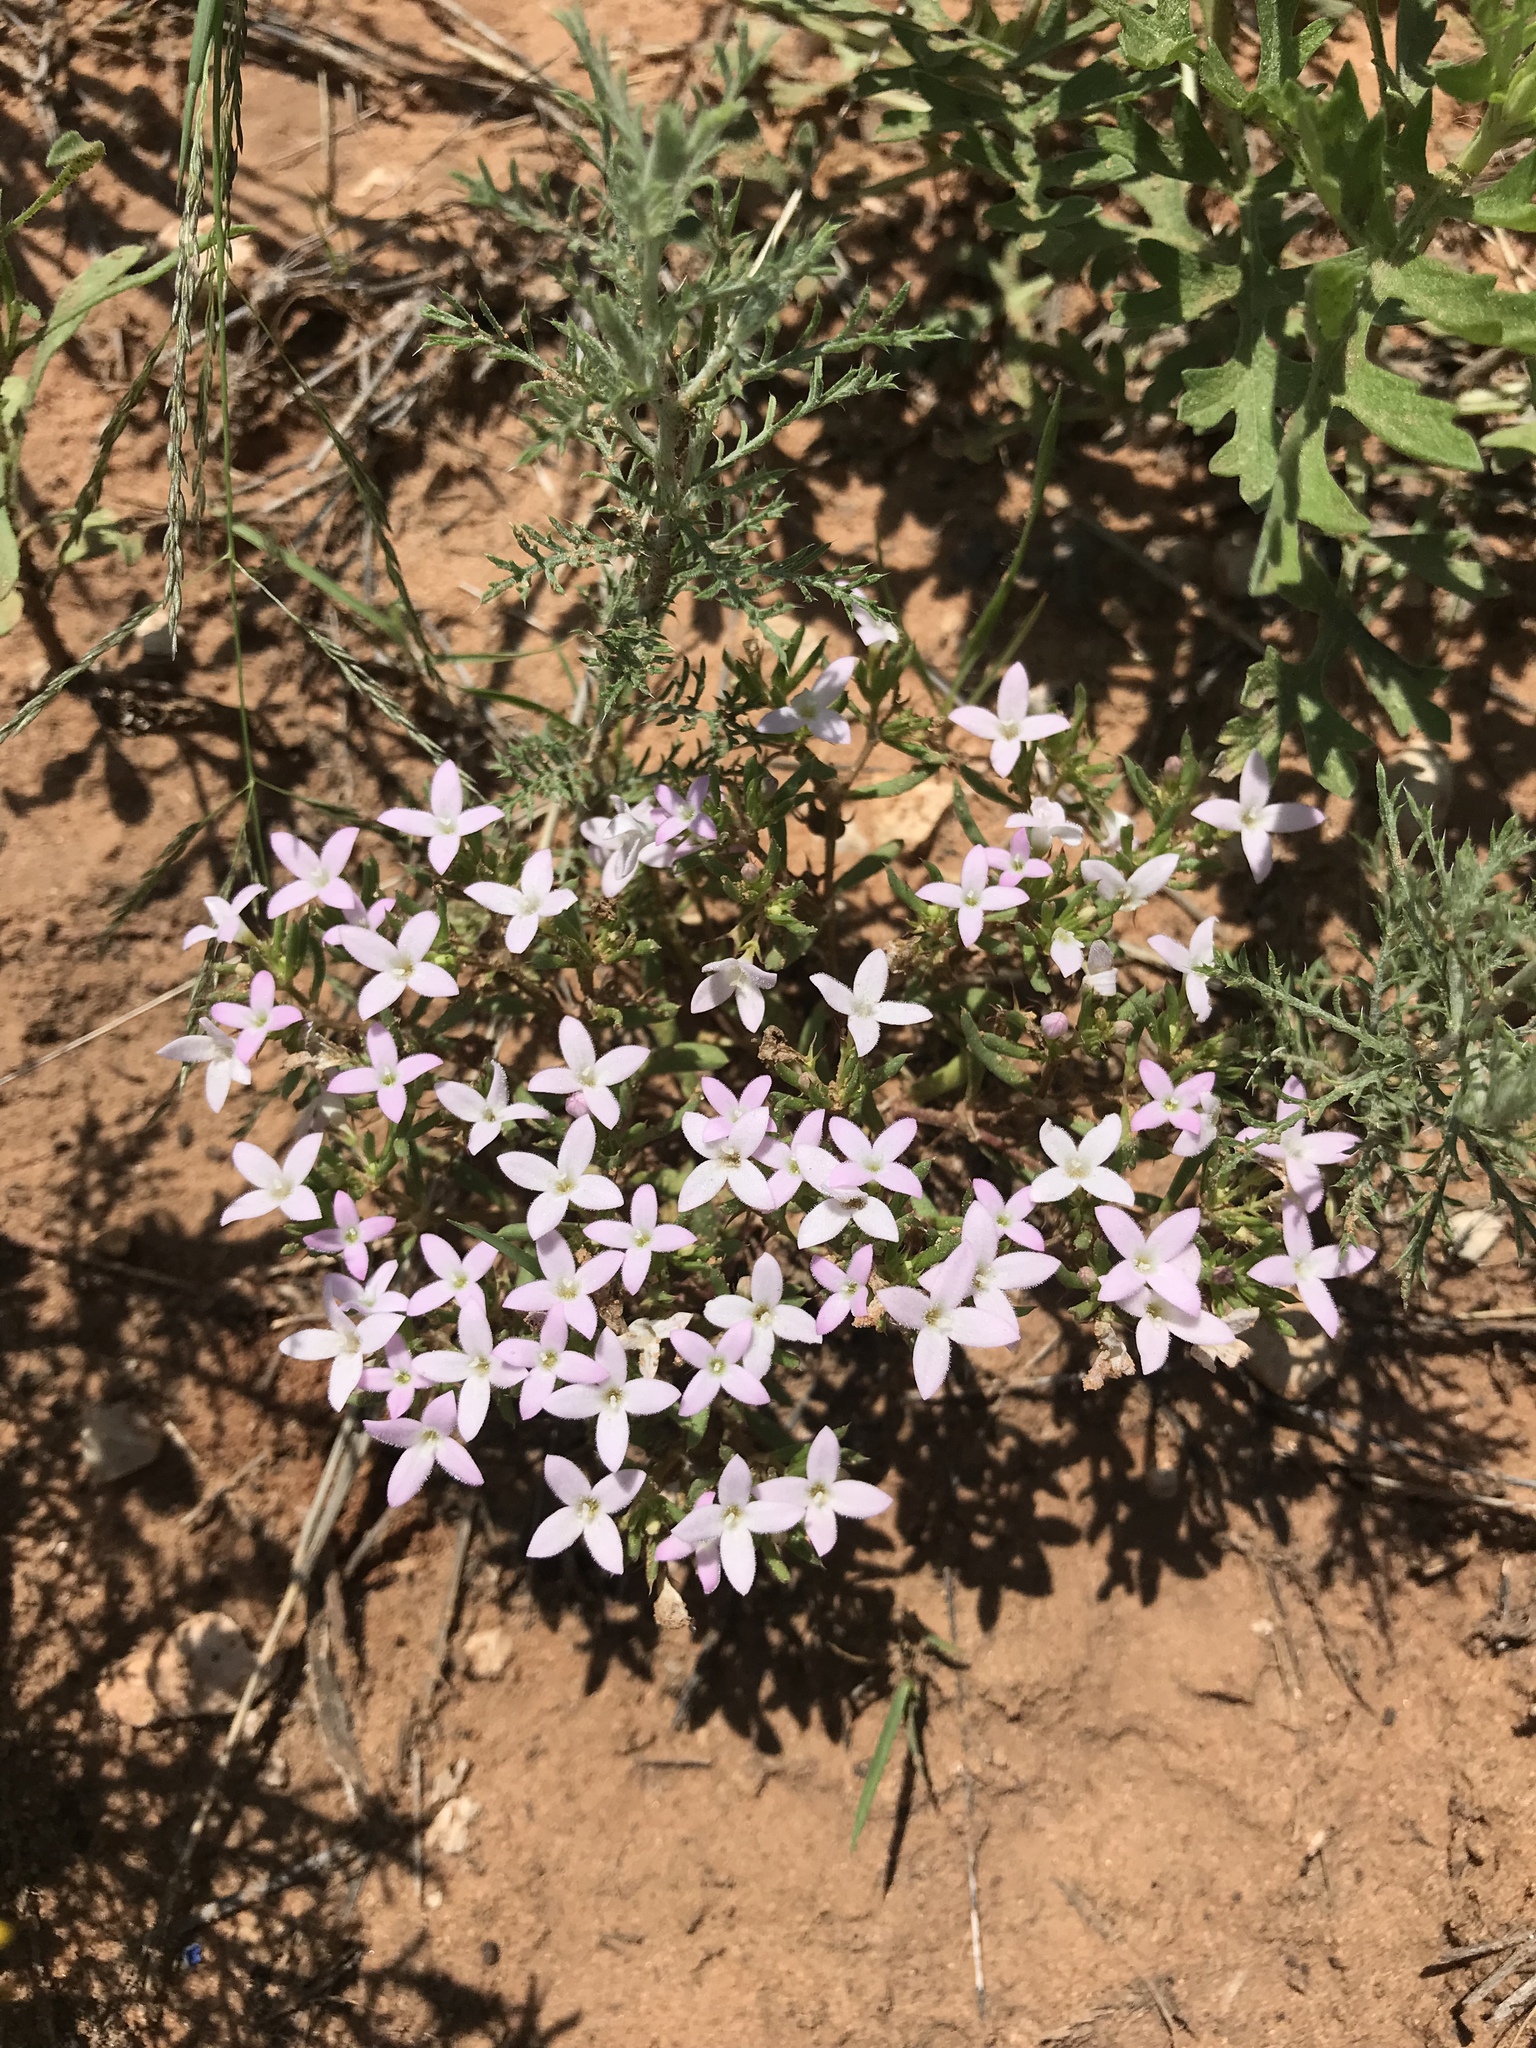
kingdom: Plantae
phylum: Tracheophyta
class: Magnoliopsida
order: Gentianales
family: Rubiaceae
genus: Houstonia
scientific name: Houstonia humifusa
